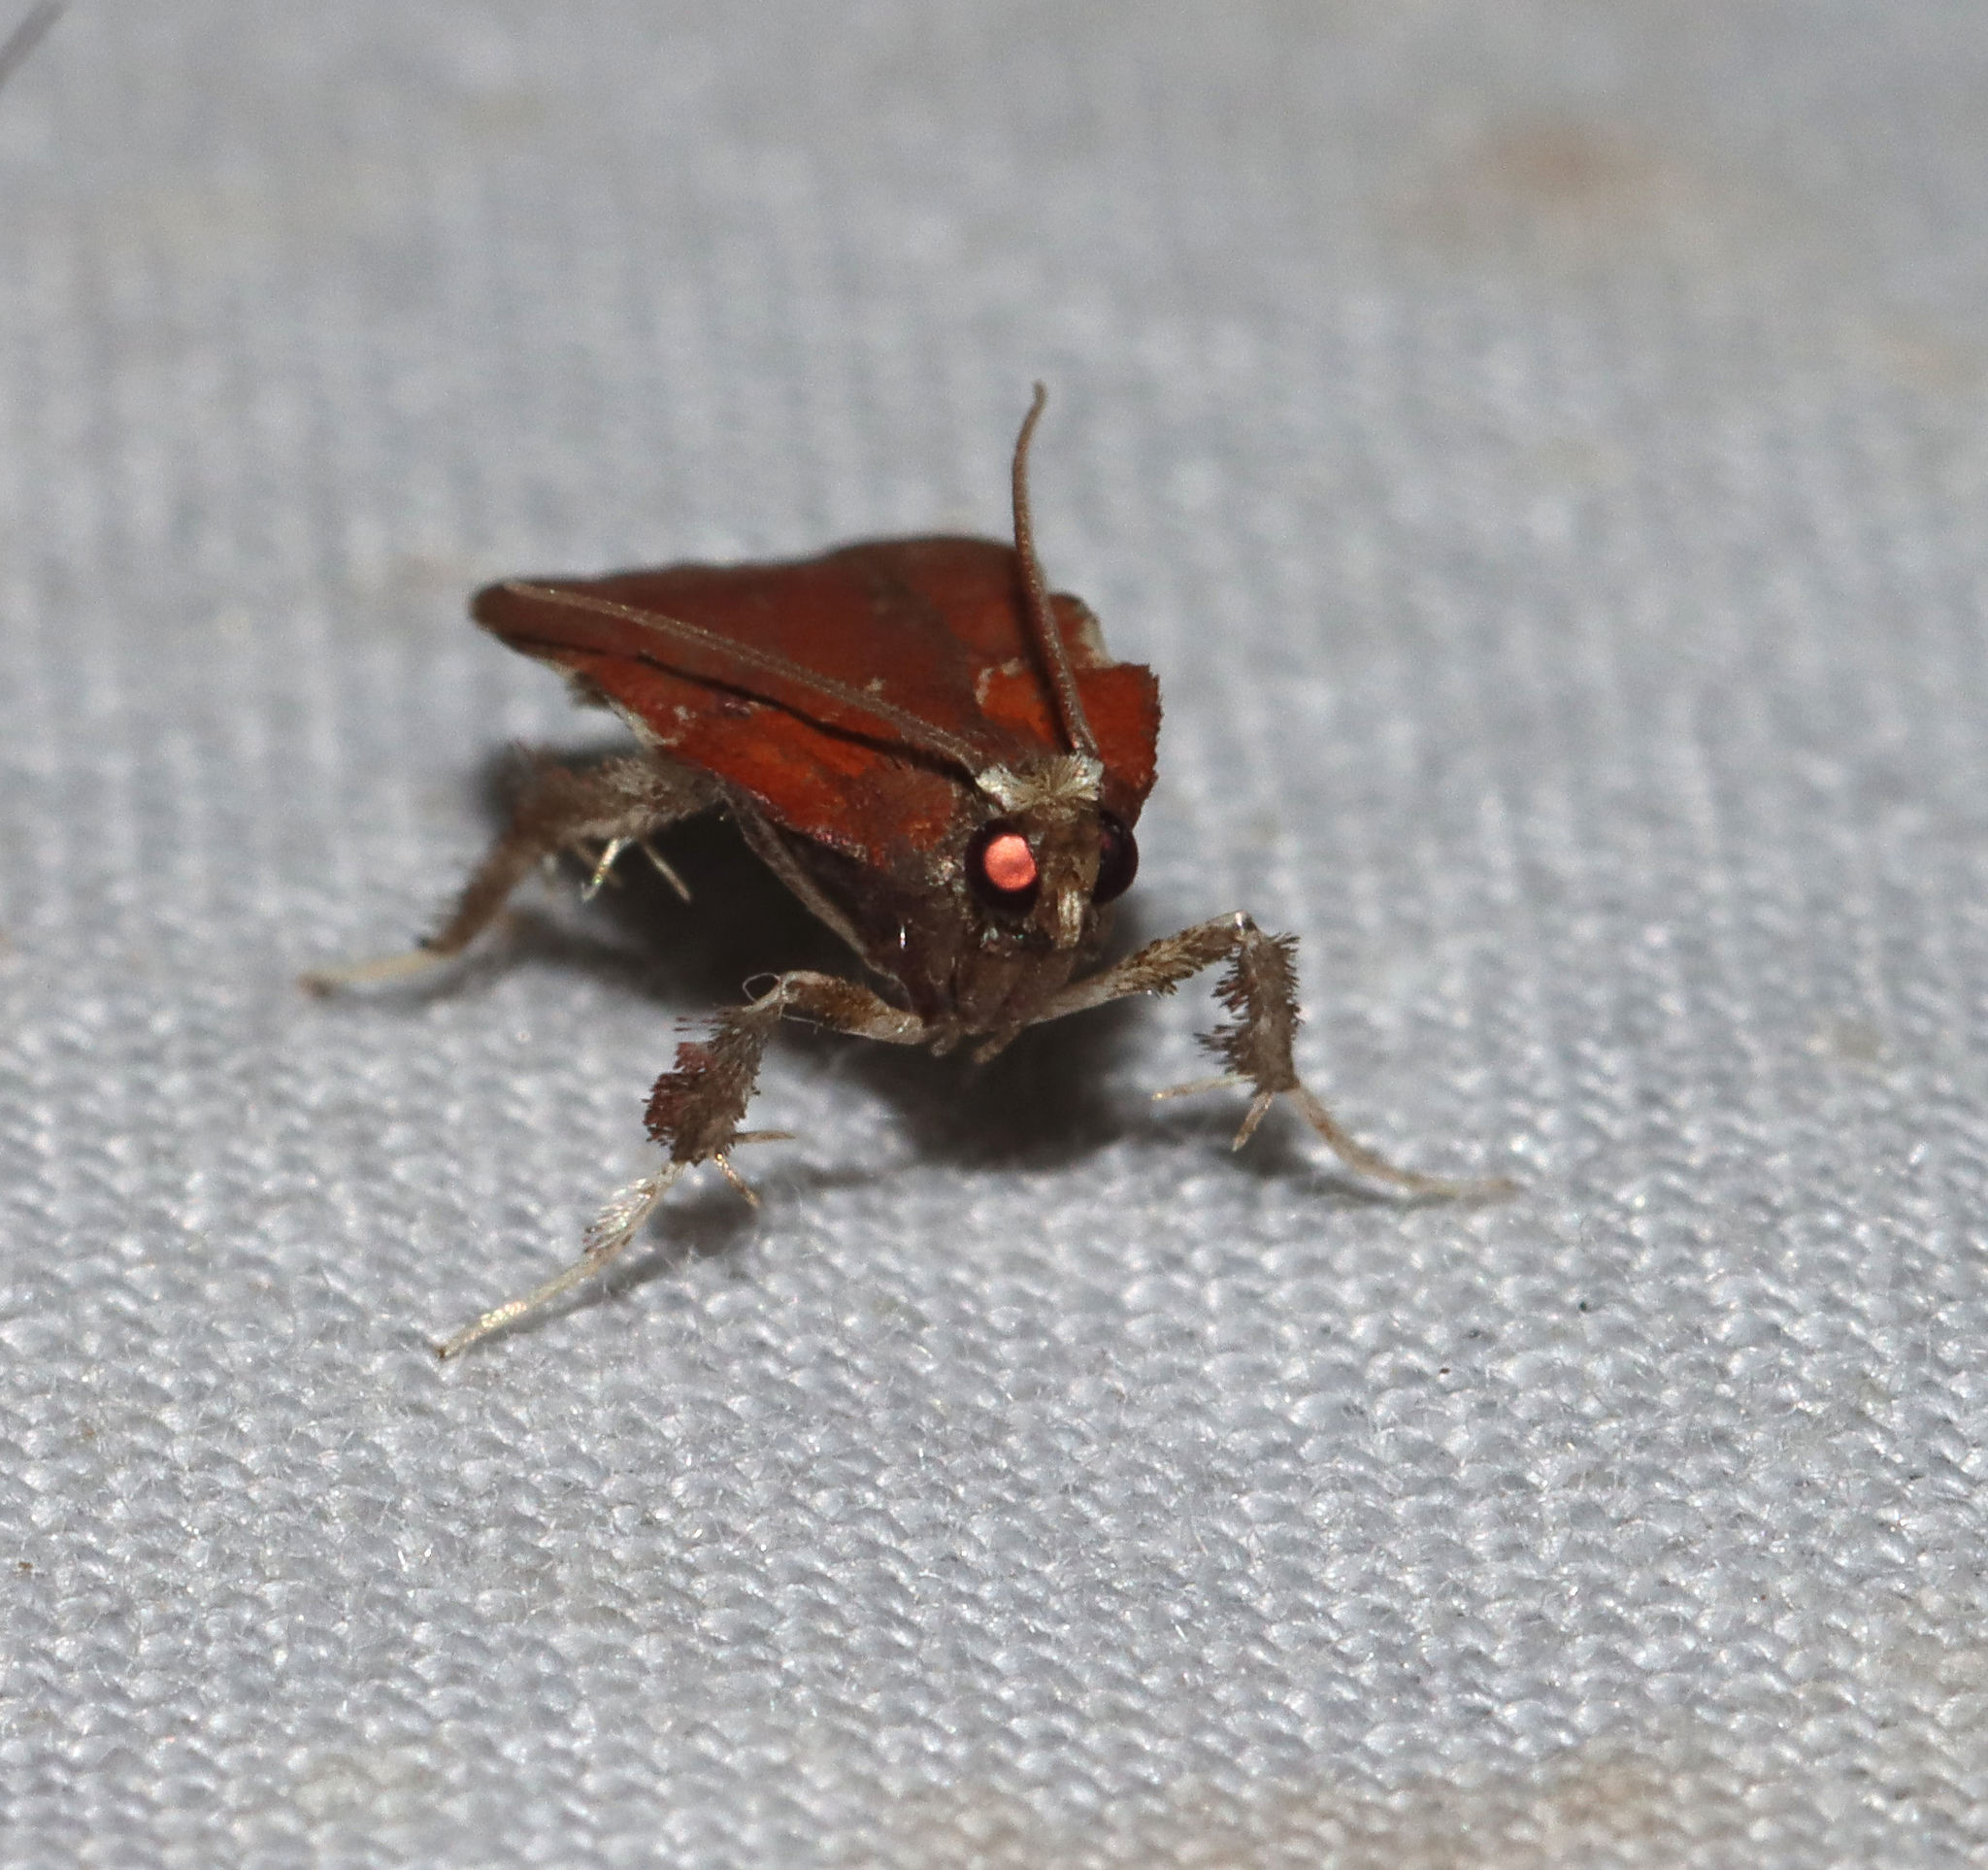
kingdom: Animalia
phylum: Arthropoda
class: Insecta
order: Lepidoptera
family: Pyralidae
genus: Galasa
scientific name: Galasa nigrinodis
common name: Boxwood leaftier moth
